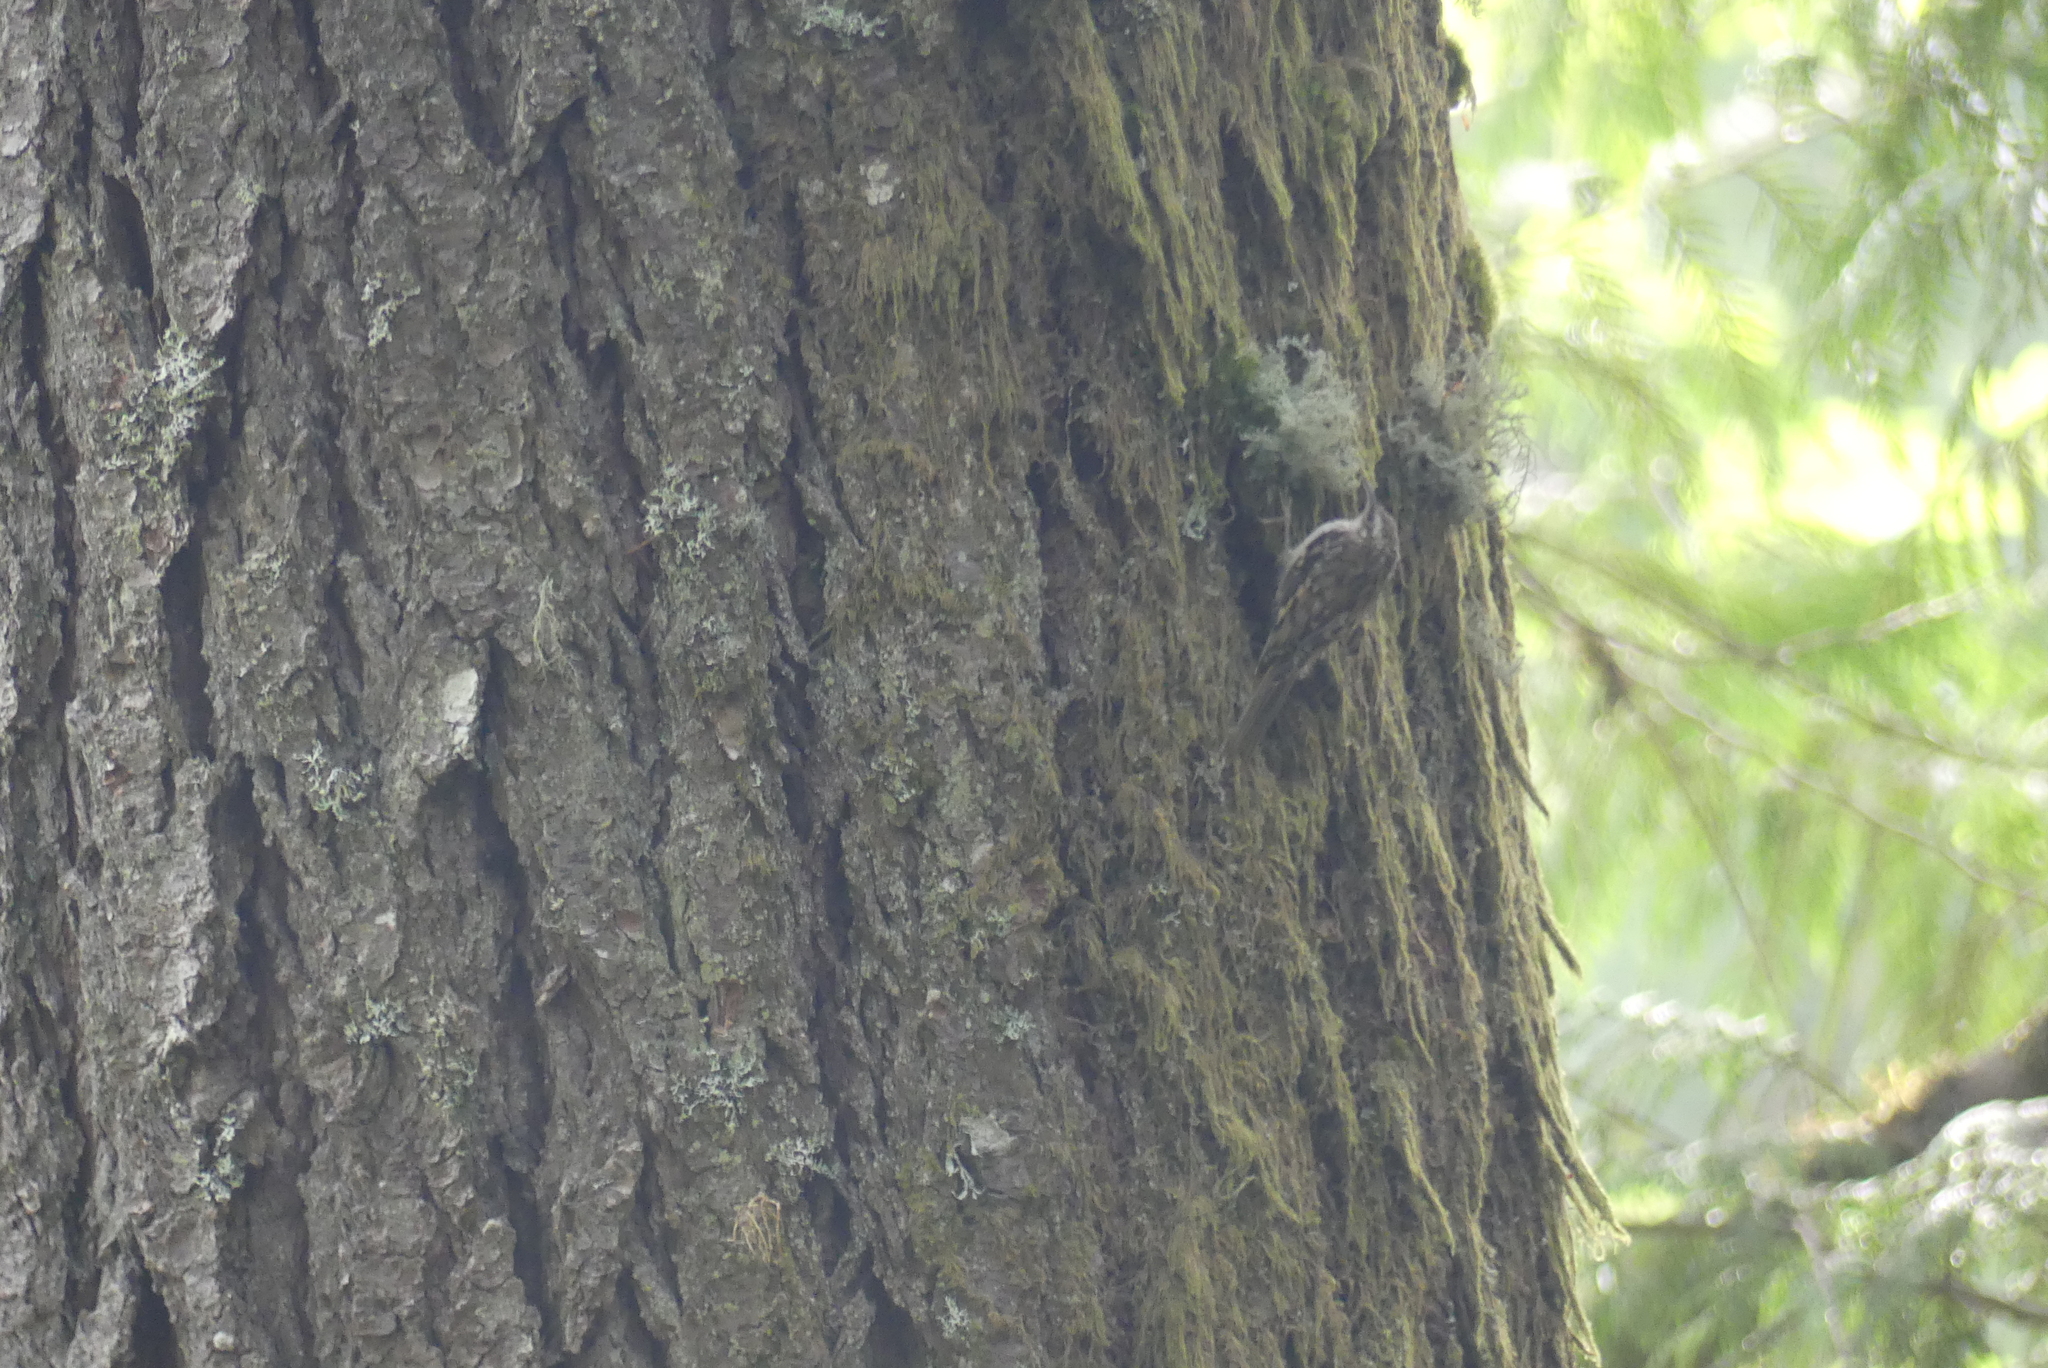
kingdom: Animalia
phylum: Chordata
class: Aves
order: Passeriformes
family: Certhiidae
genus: Certhia
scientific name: Certhia americana
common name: Brown creeper
